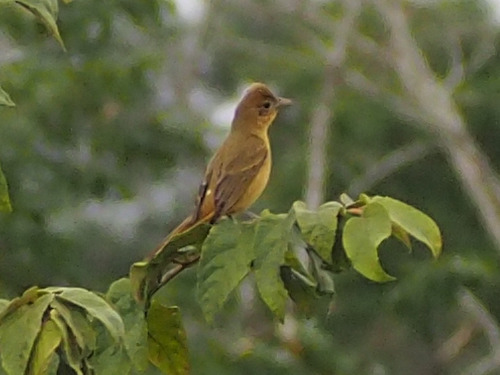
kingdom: Animalia
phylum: Chordata
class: Aves
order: Passeriformes
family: Cardinalidae
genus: Piranga
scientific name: Piranga rubra
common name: Summer tanager
